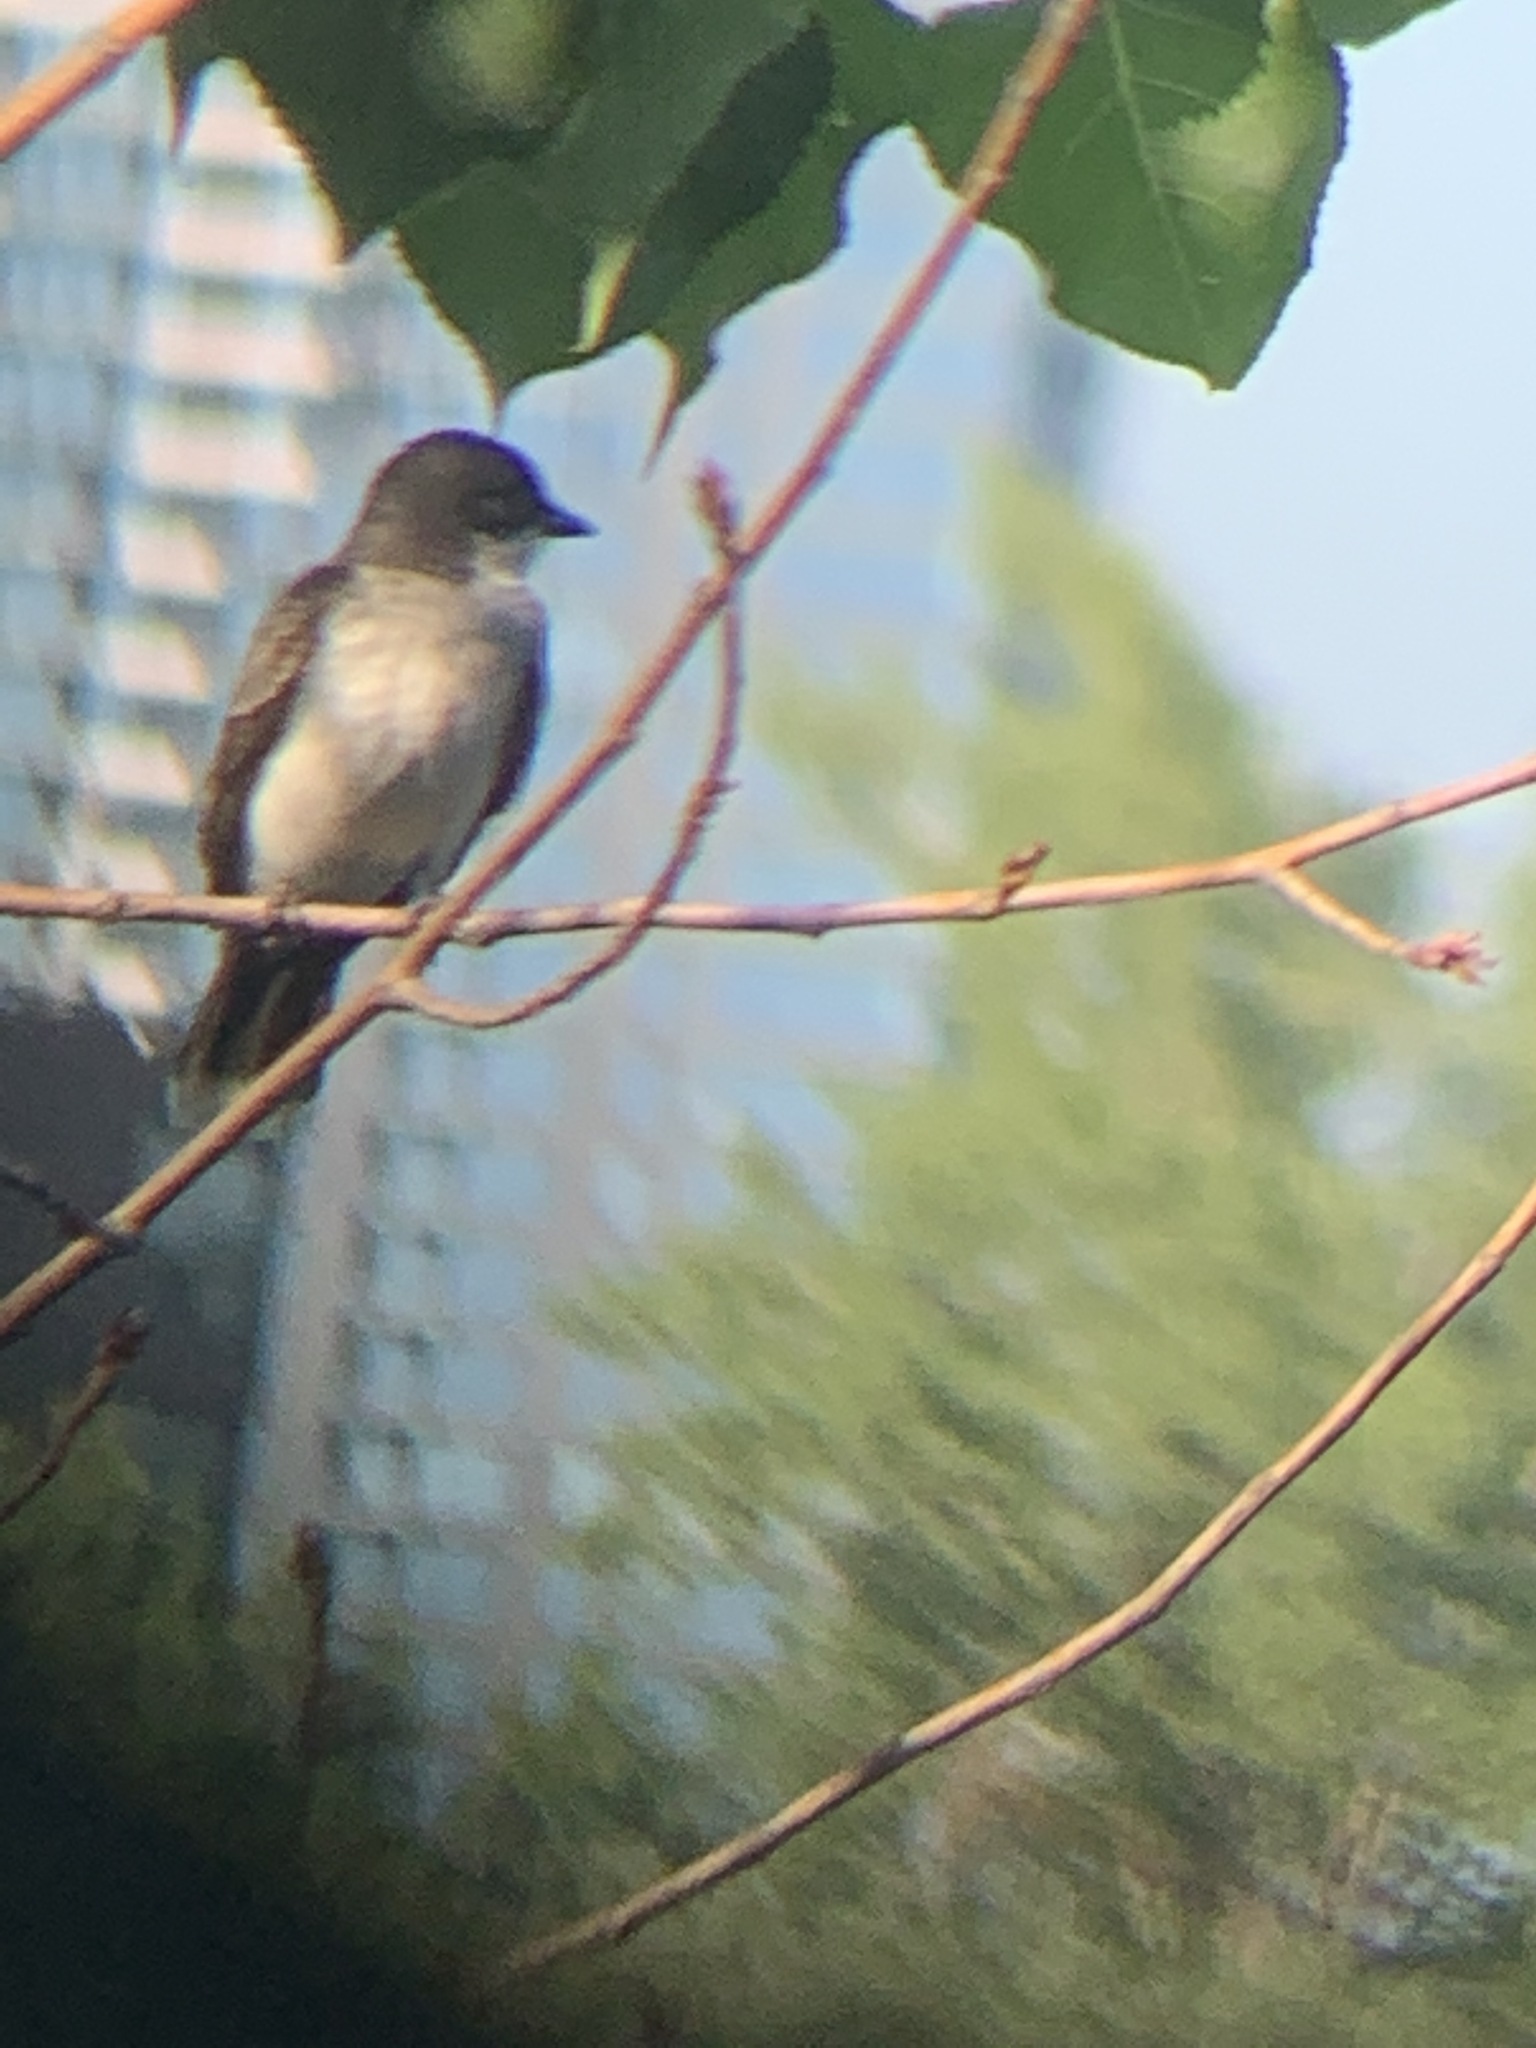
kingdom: Animalia
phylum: Chordata
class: Aves
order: Passeriformes
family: Tyrannidae
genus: Tyrannus
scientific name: Tyrannus tyrannus
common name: Eastern kingbird
